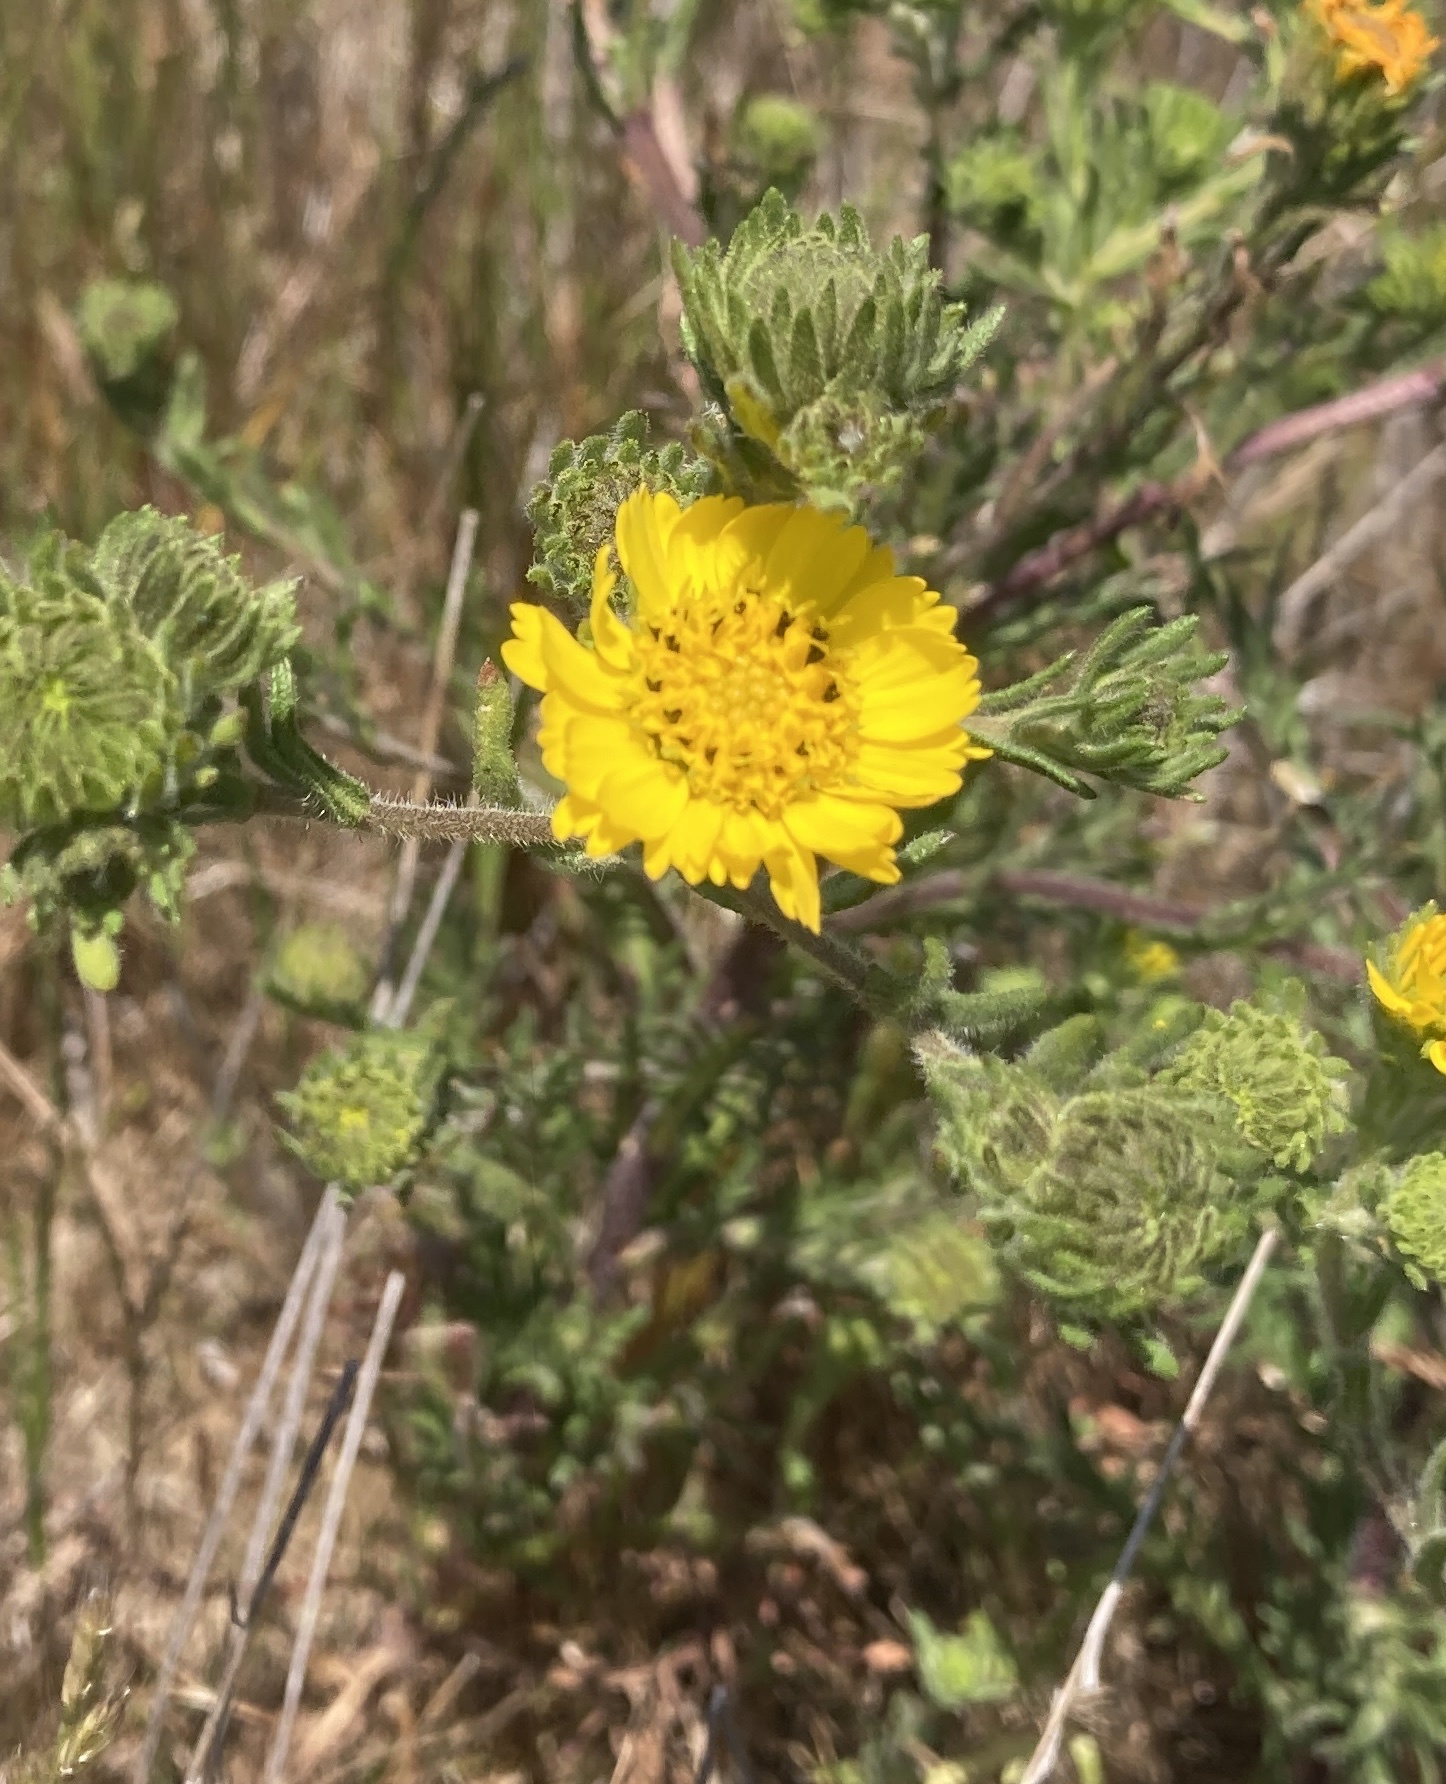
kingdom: Plantae
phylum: Tracheophyta
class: Magnoliopsida
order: Asterales
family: Asteraceae
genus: Deinandra
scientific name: Deinandra corymbosa
